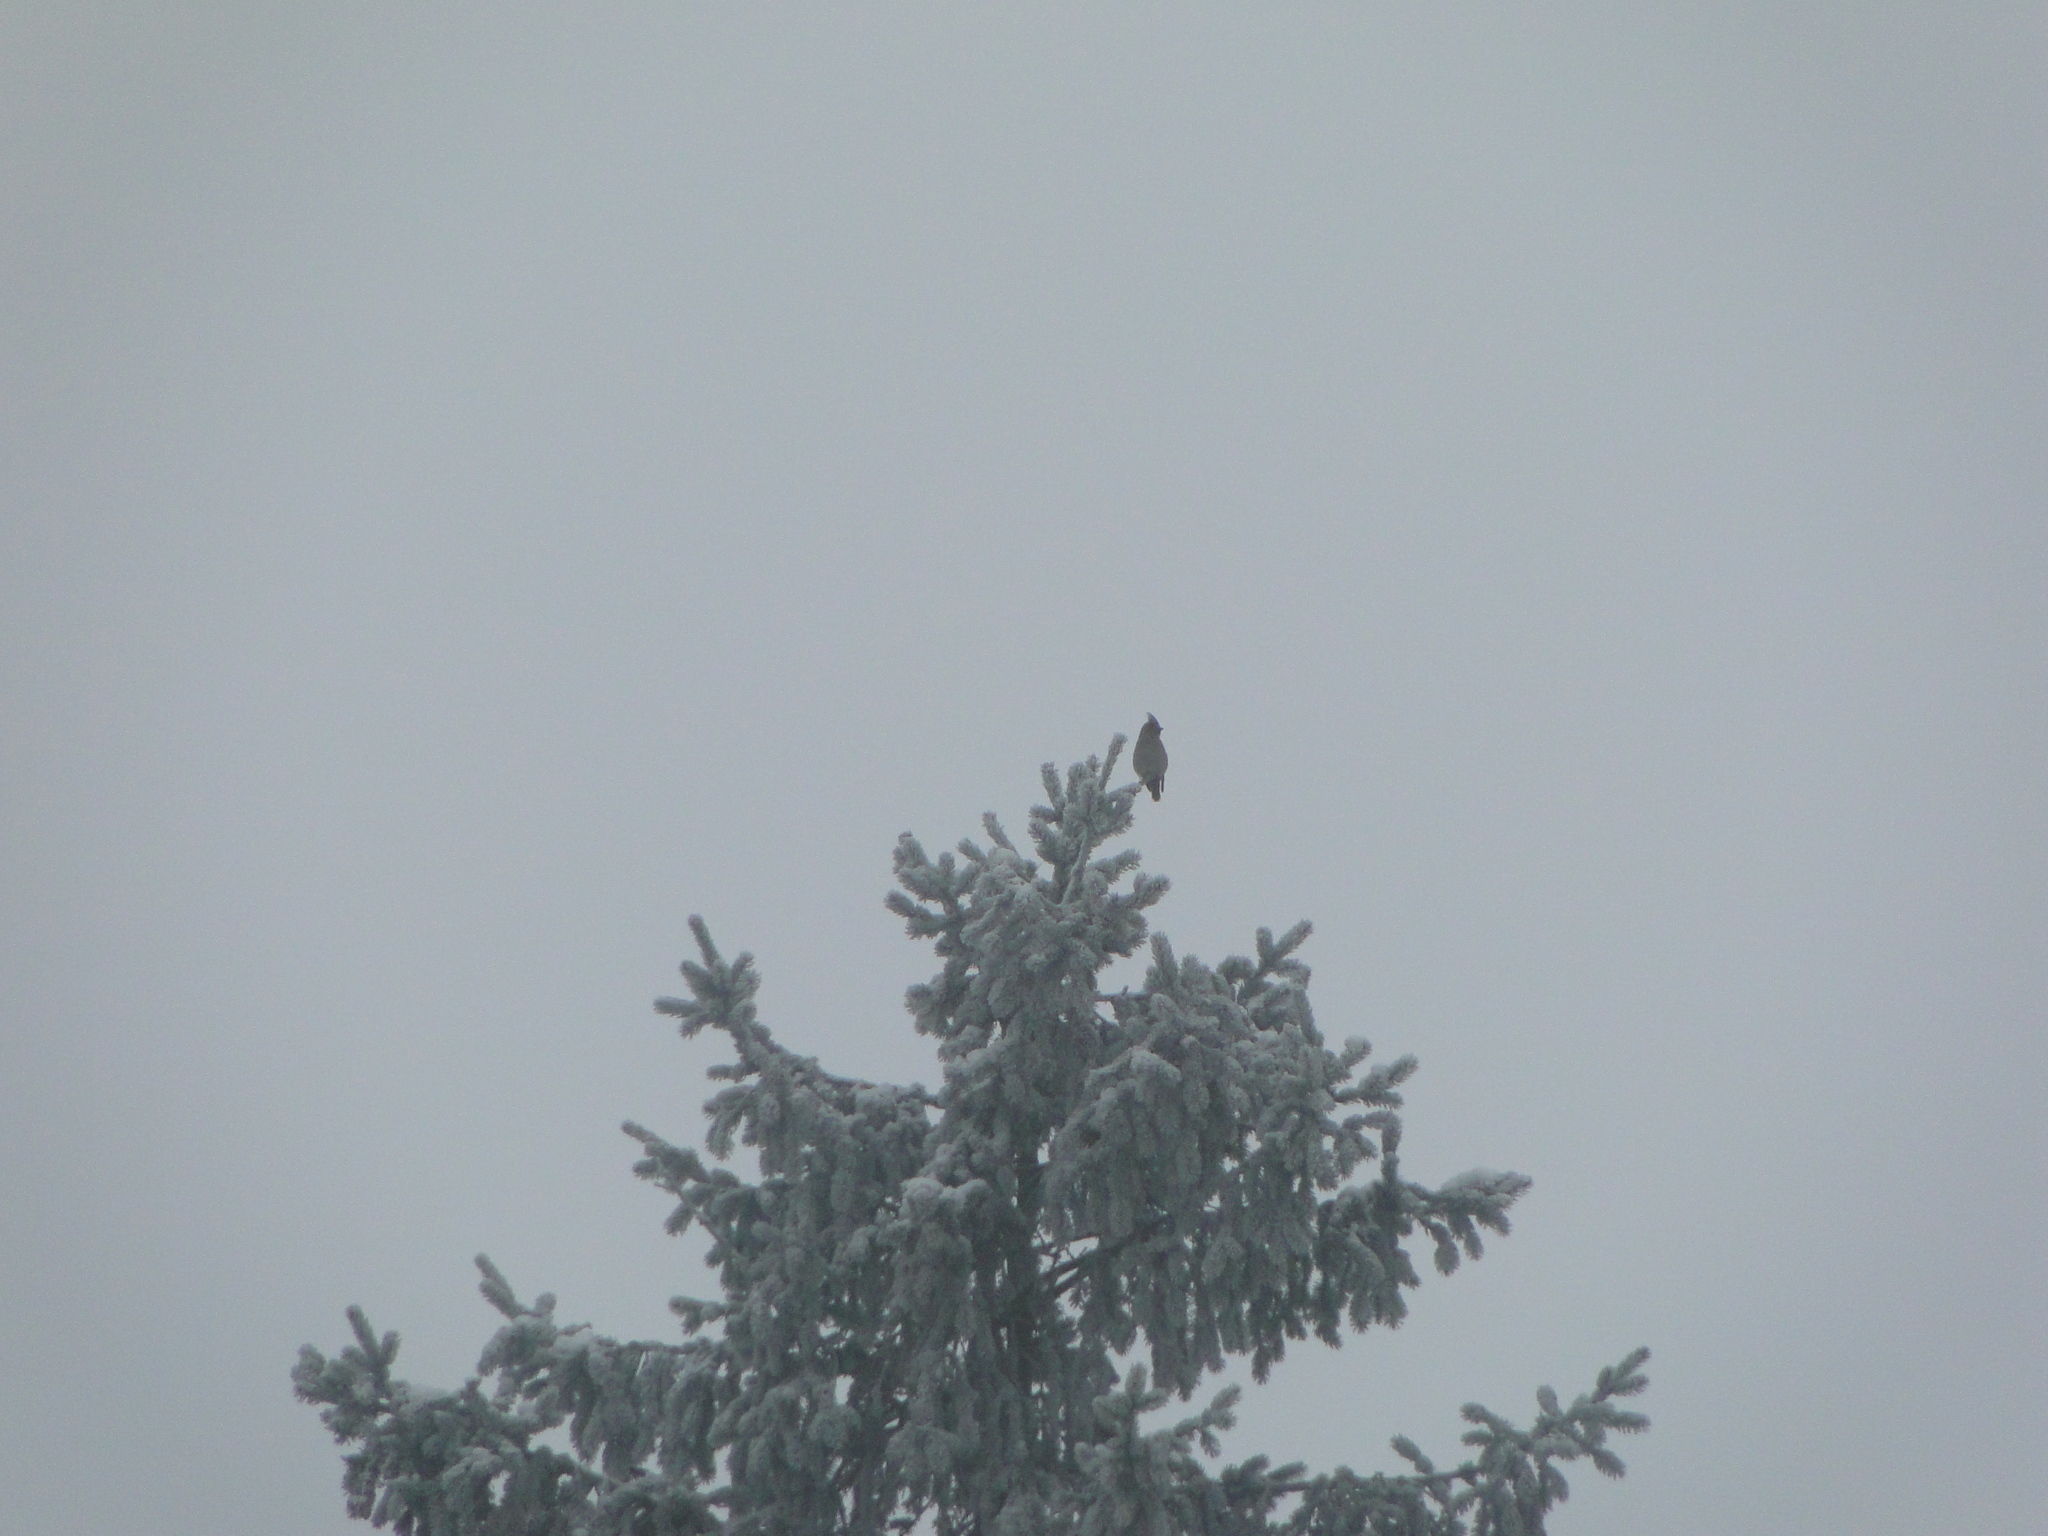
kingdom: Animalia
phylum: Chordata
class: Aves
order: Passeriformes
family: Bombycillidae
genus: Bombycilla
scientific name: Bombycilla garrulus
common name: Bohemian waxwing
